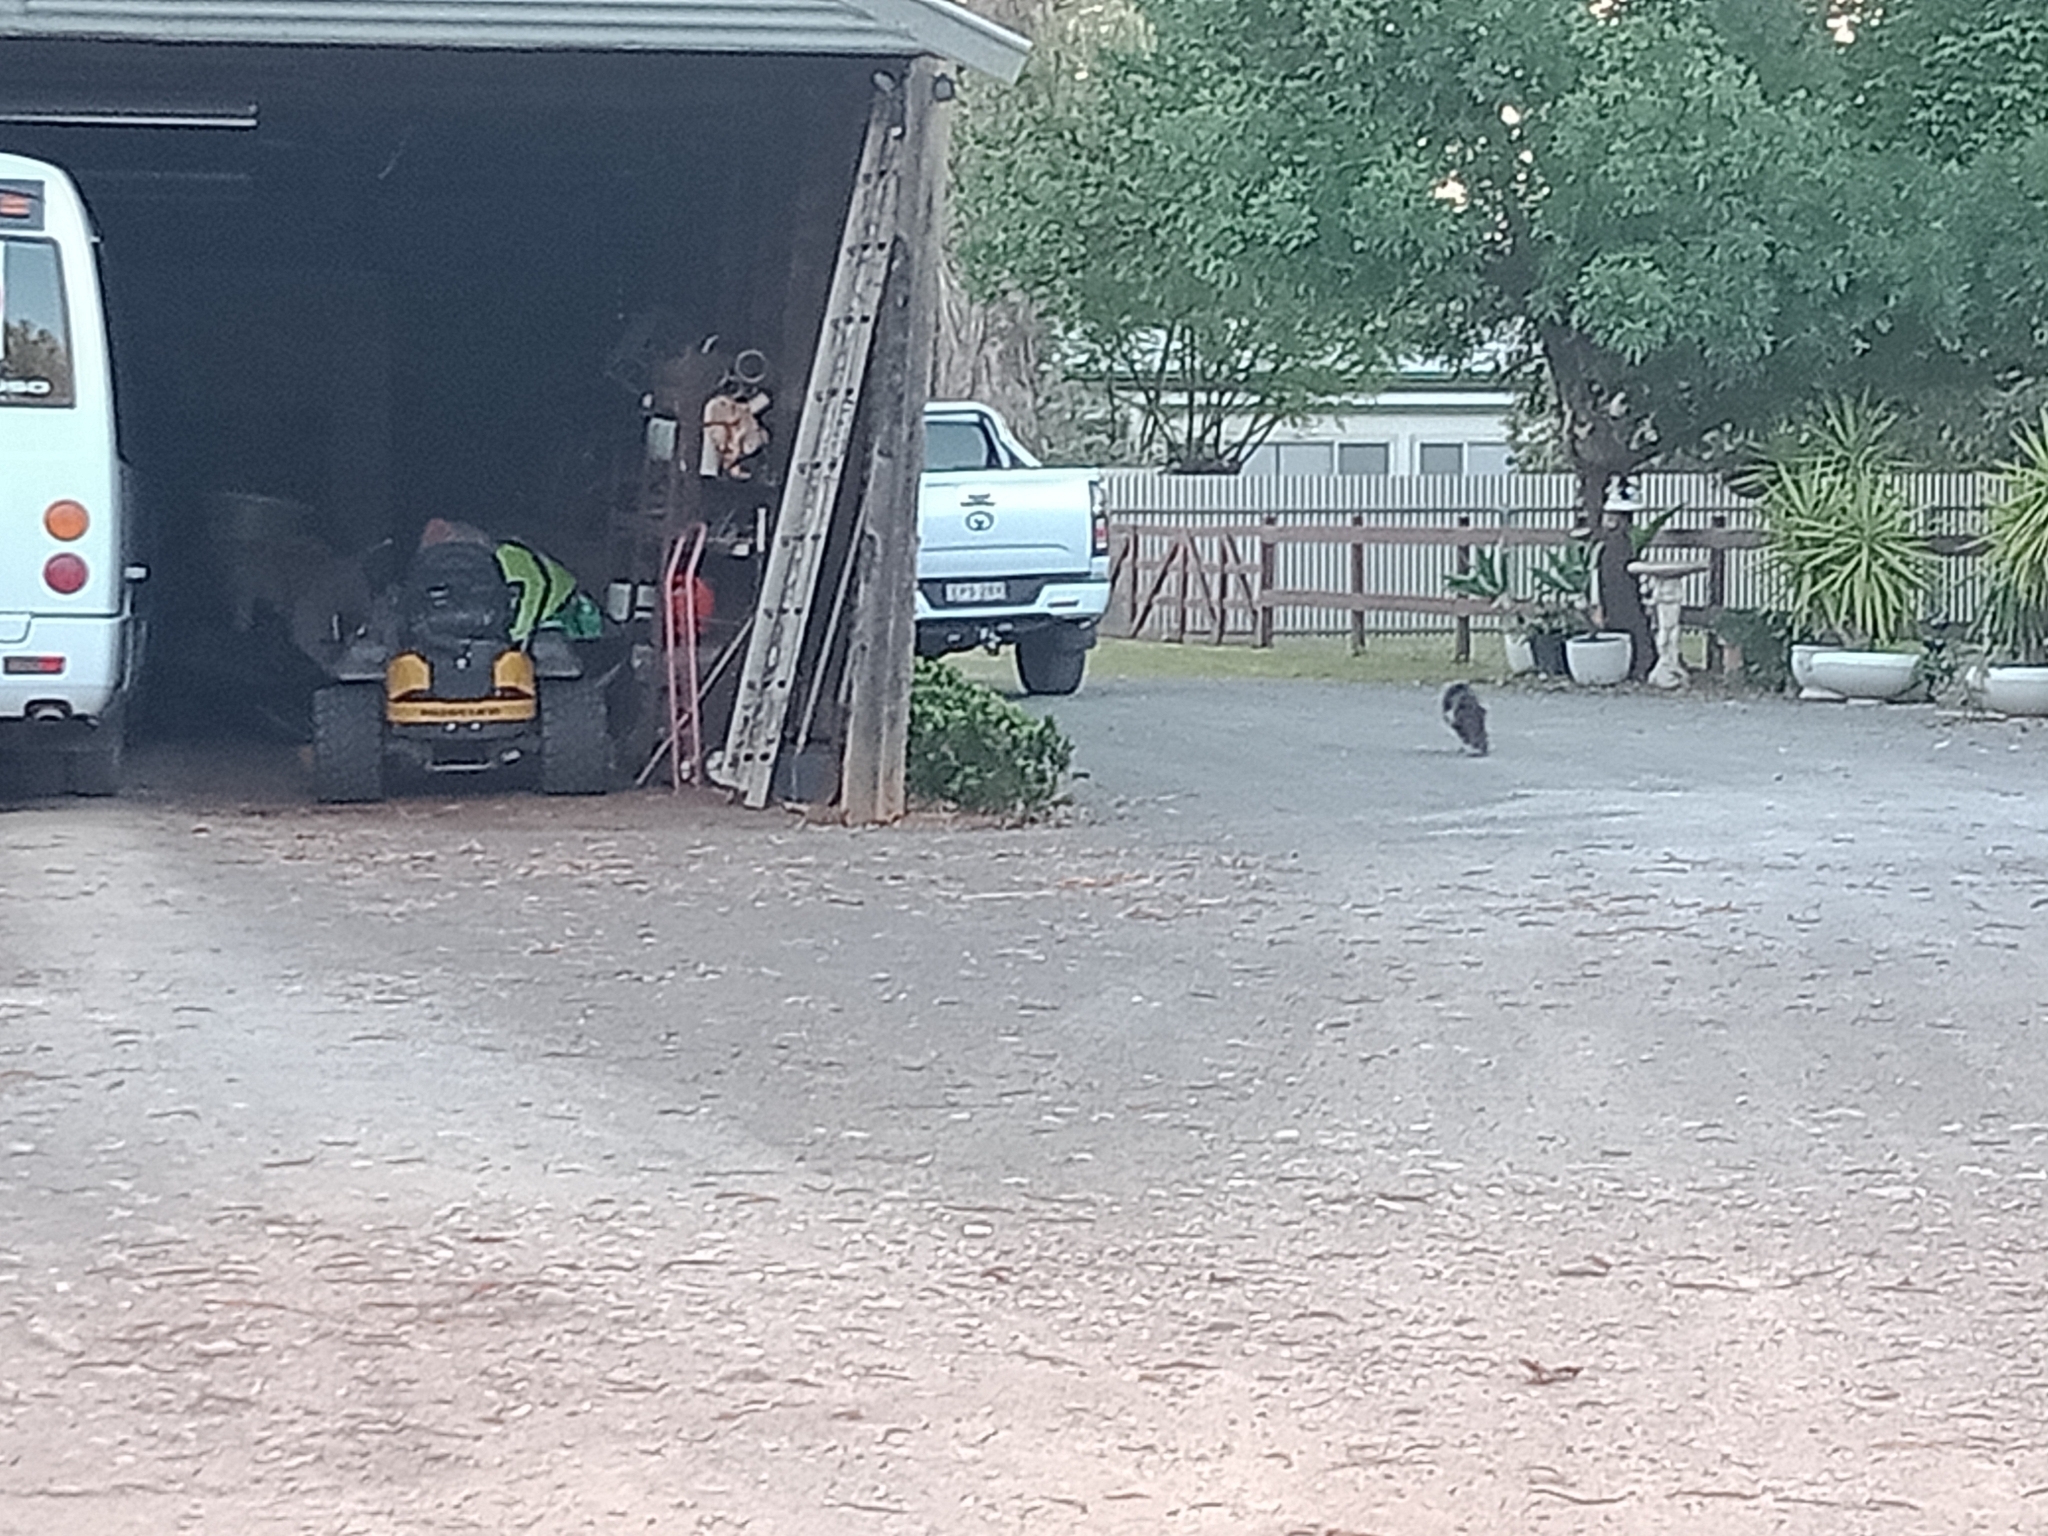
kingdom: Animalia
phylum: Chordata
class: Mammalia
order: Carnivora
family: Felidae
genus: Felis
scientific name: Felis catus
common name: Domestic cat
